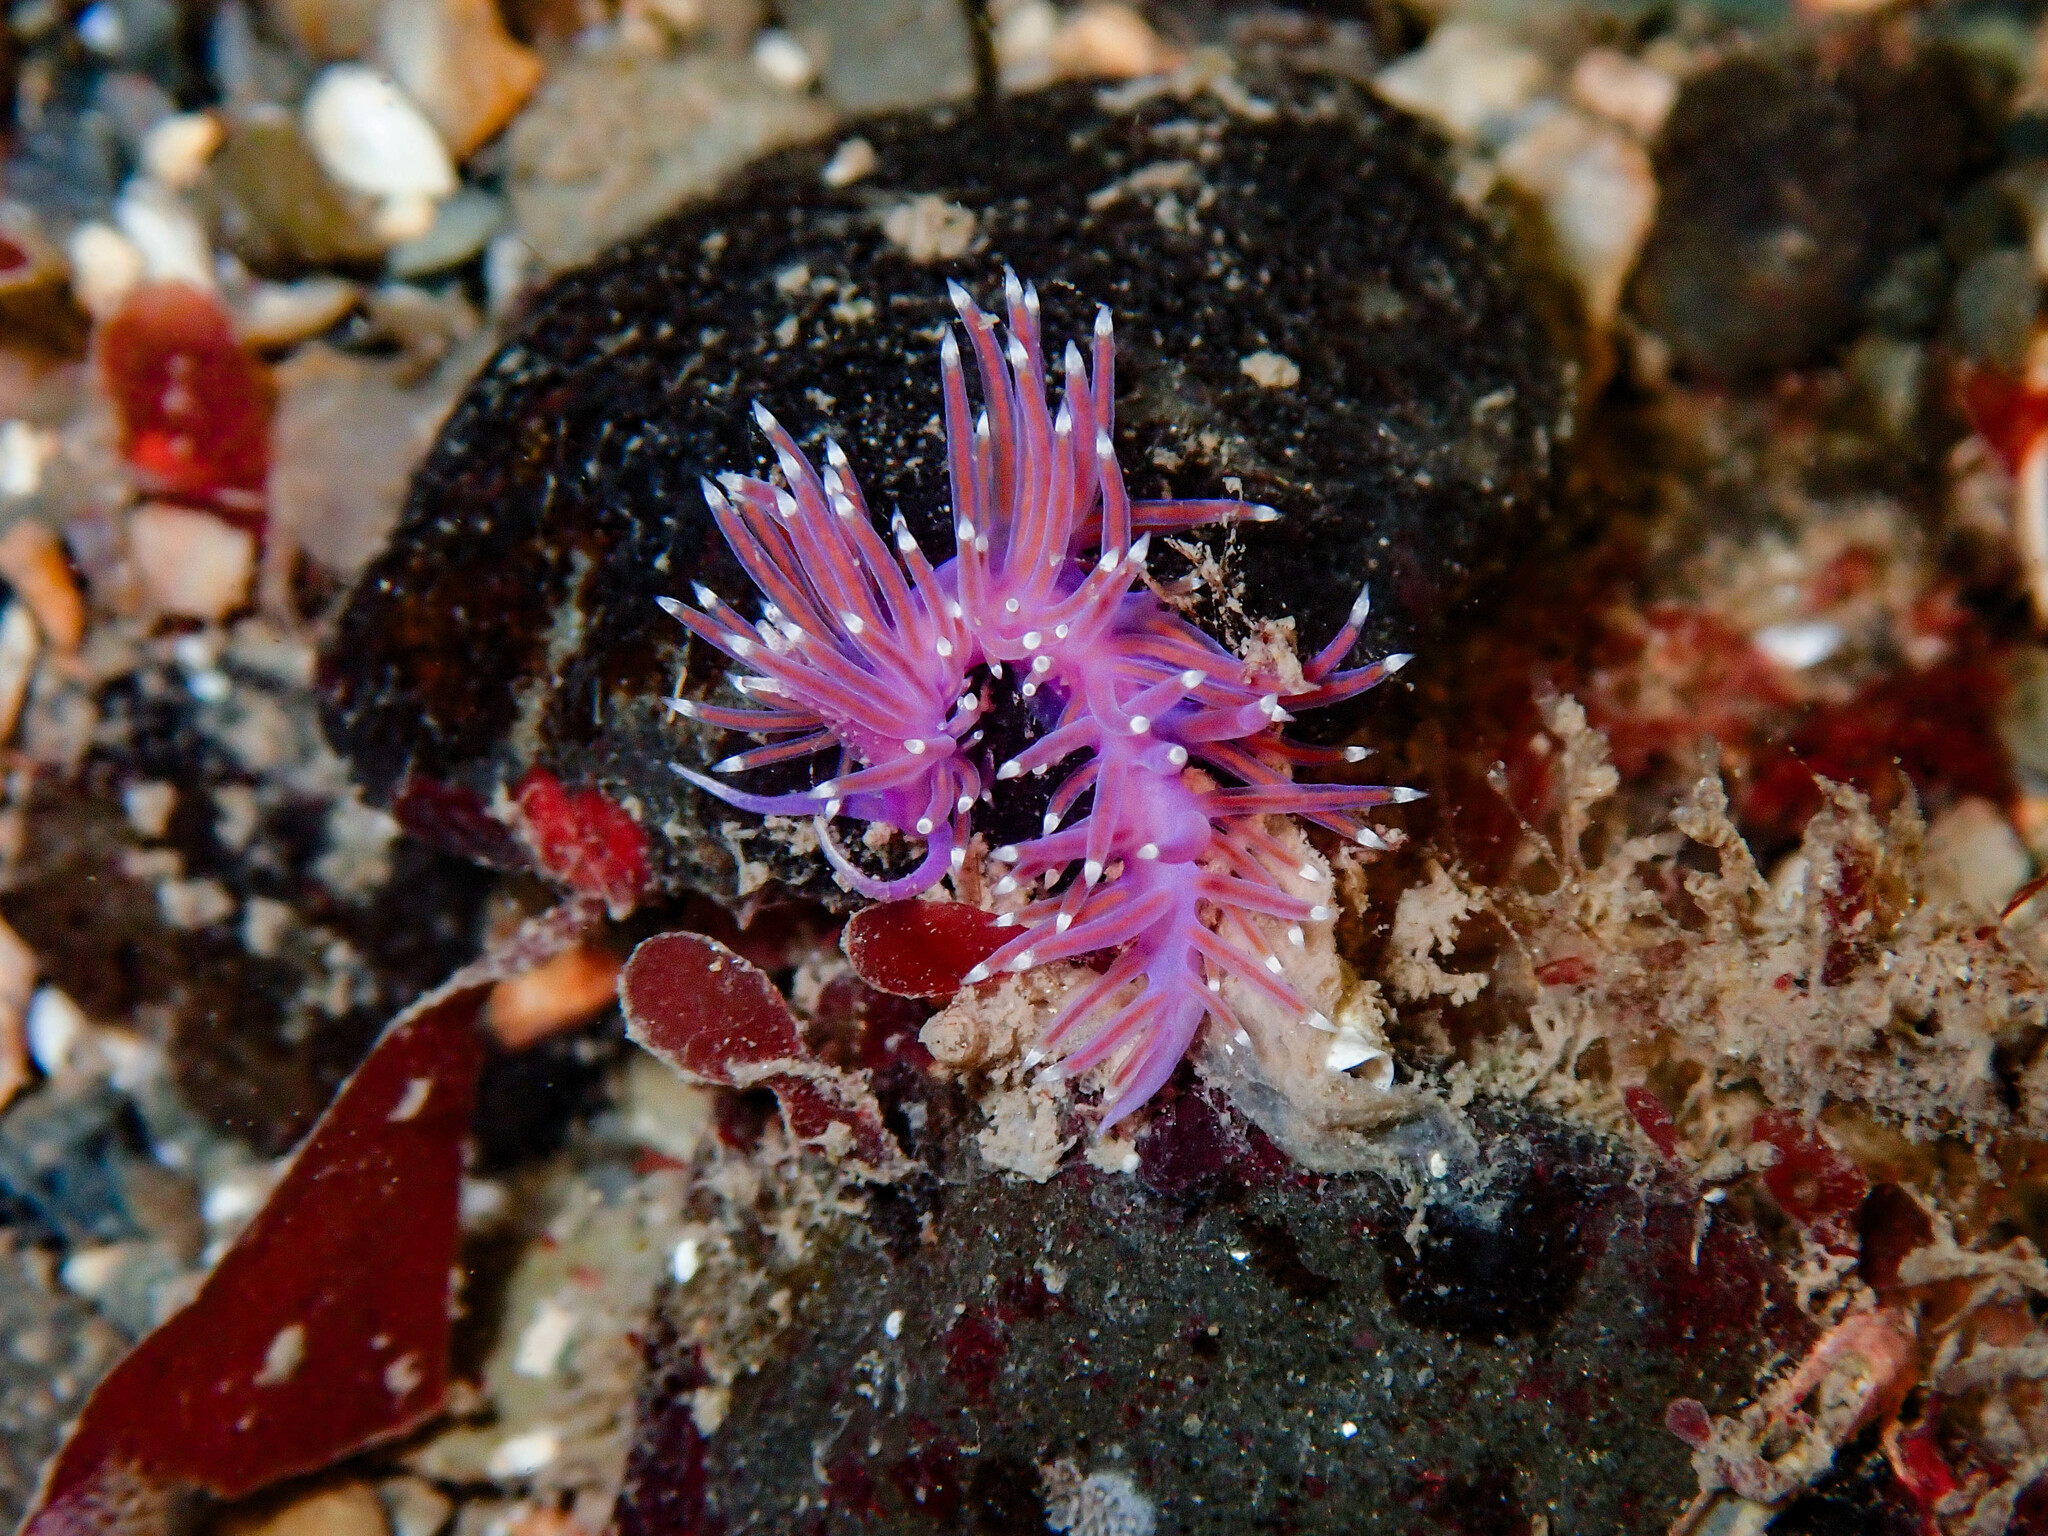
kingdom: Animalia
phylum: Mollusca
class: Gastropoda
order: Nudibranchia
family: Flabellinidae
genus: Edmundsella
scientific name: Edmundsella pedata
